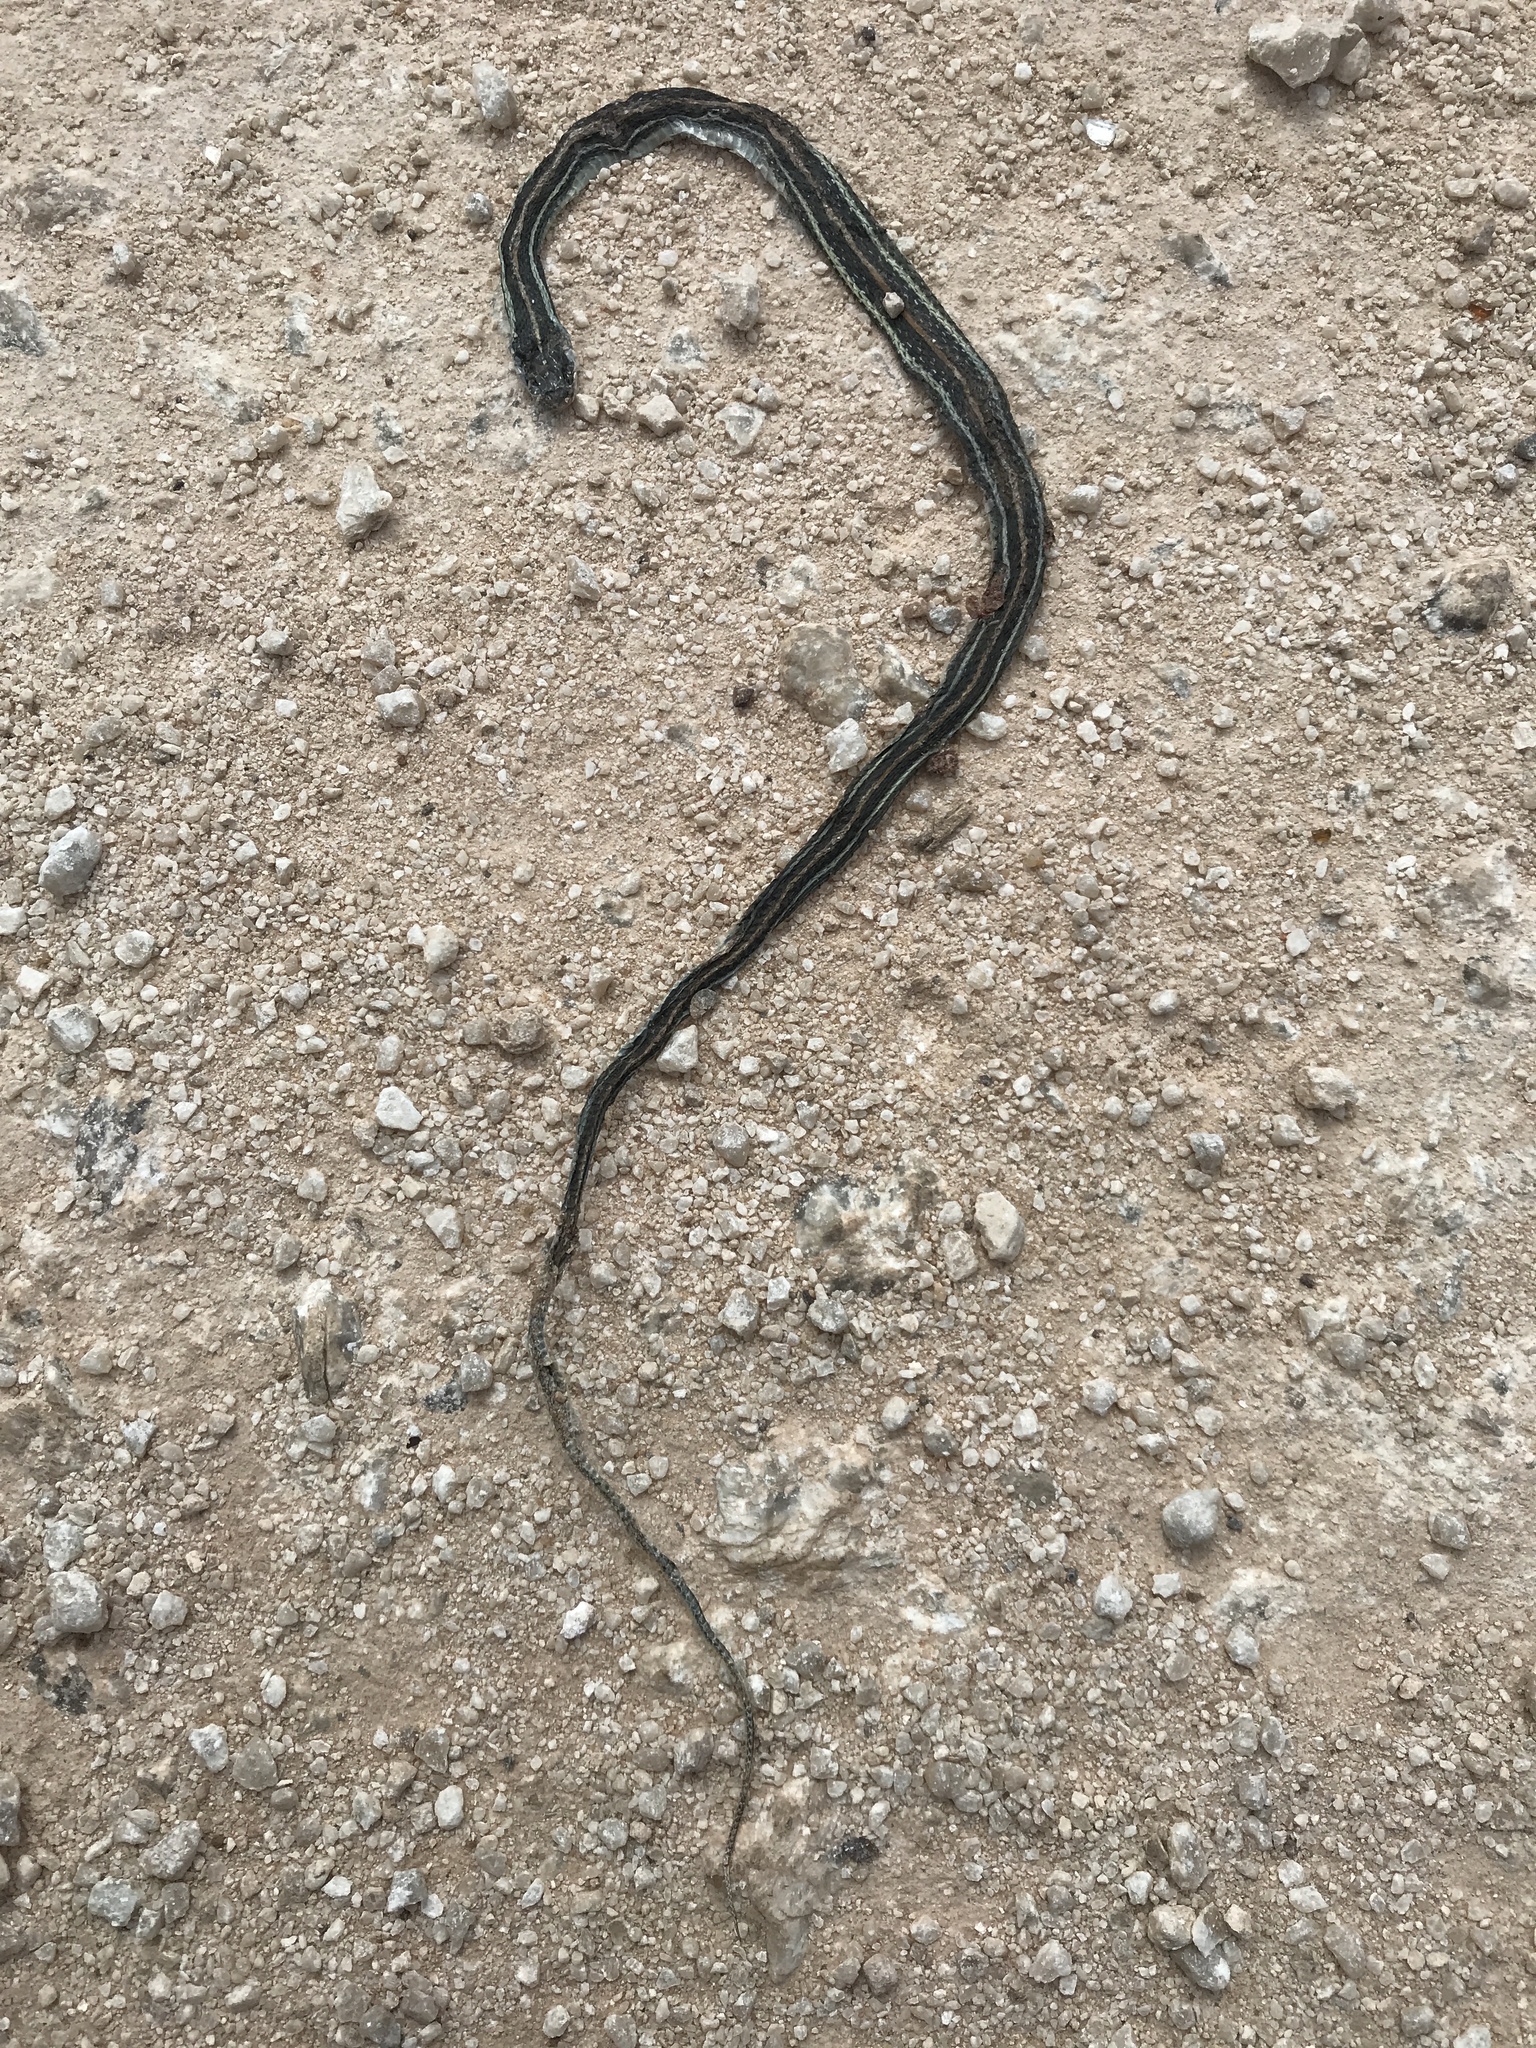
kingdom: Animalia
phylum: Chordata
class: Squamata
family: Colubridae
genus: Thamnophis
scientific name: Thamnophis proximus
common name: Western ribbon snake
